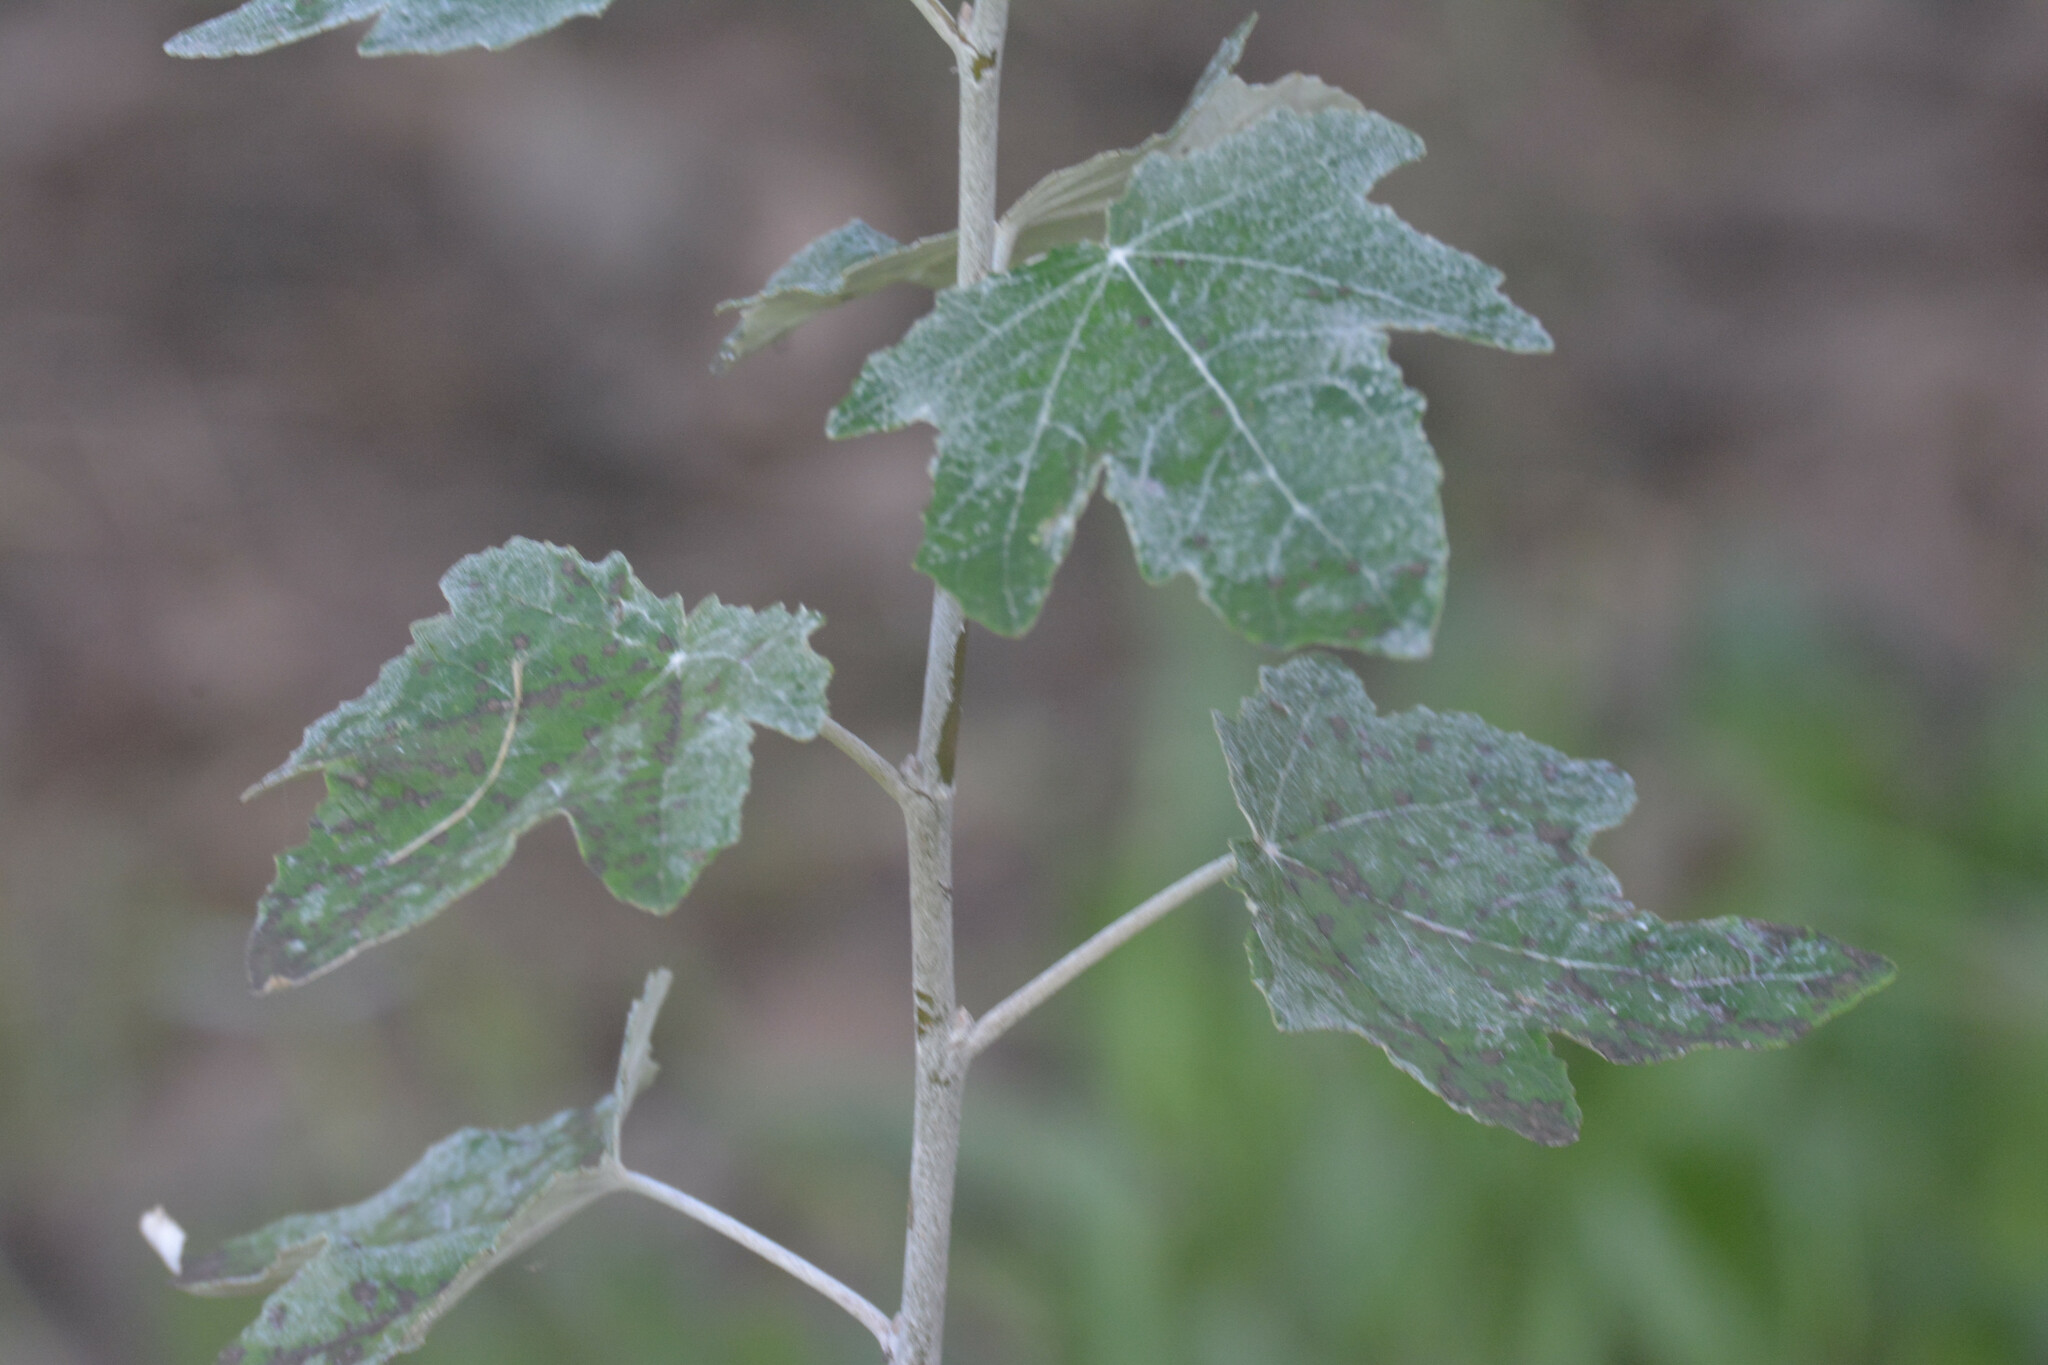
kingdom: Plantae
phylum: Tracheophyta
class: Magnoliopsida
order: Malpighiales
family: Salicaceae
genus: Populus
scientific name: Populus alba
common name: White poplar
